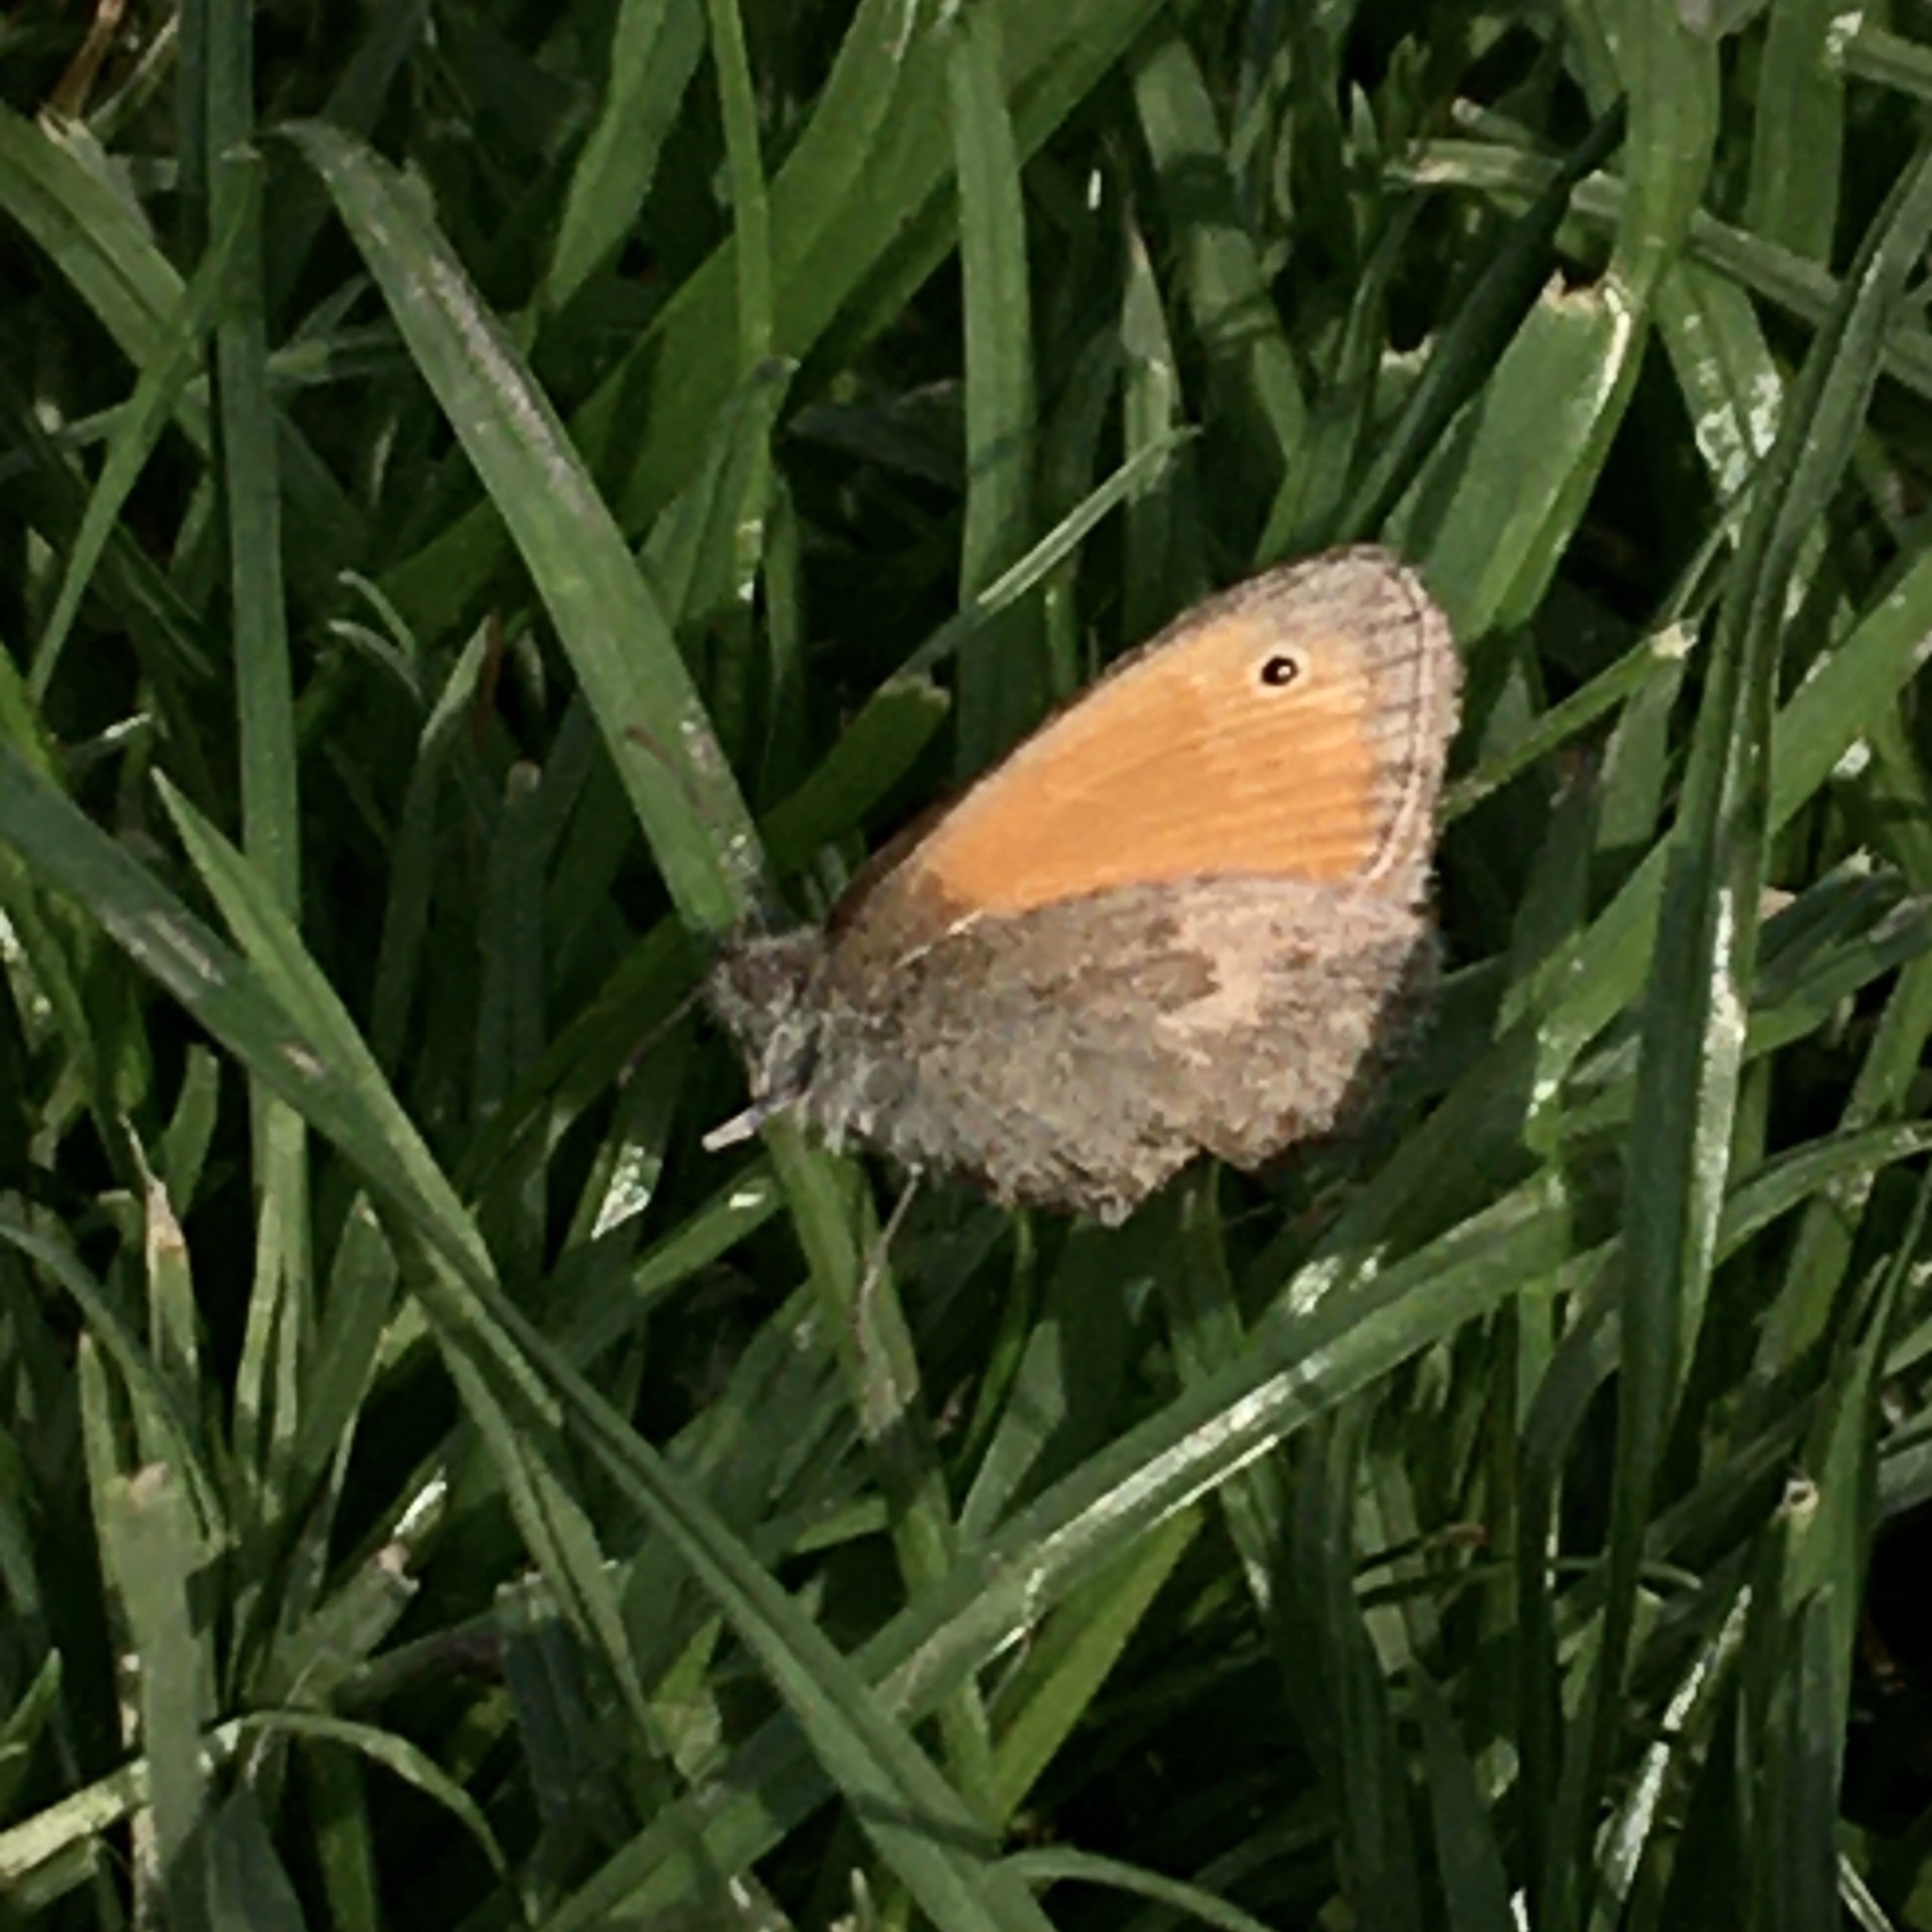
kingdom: Animalia
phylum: Arthropoda
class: Insecta
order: Lepidoptera
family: Nymphalidae
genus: Coenonympha
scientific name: Coenonympha pamphilus
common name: Small heath
